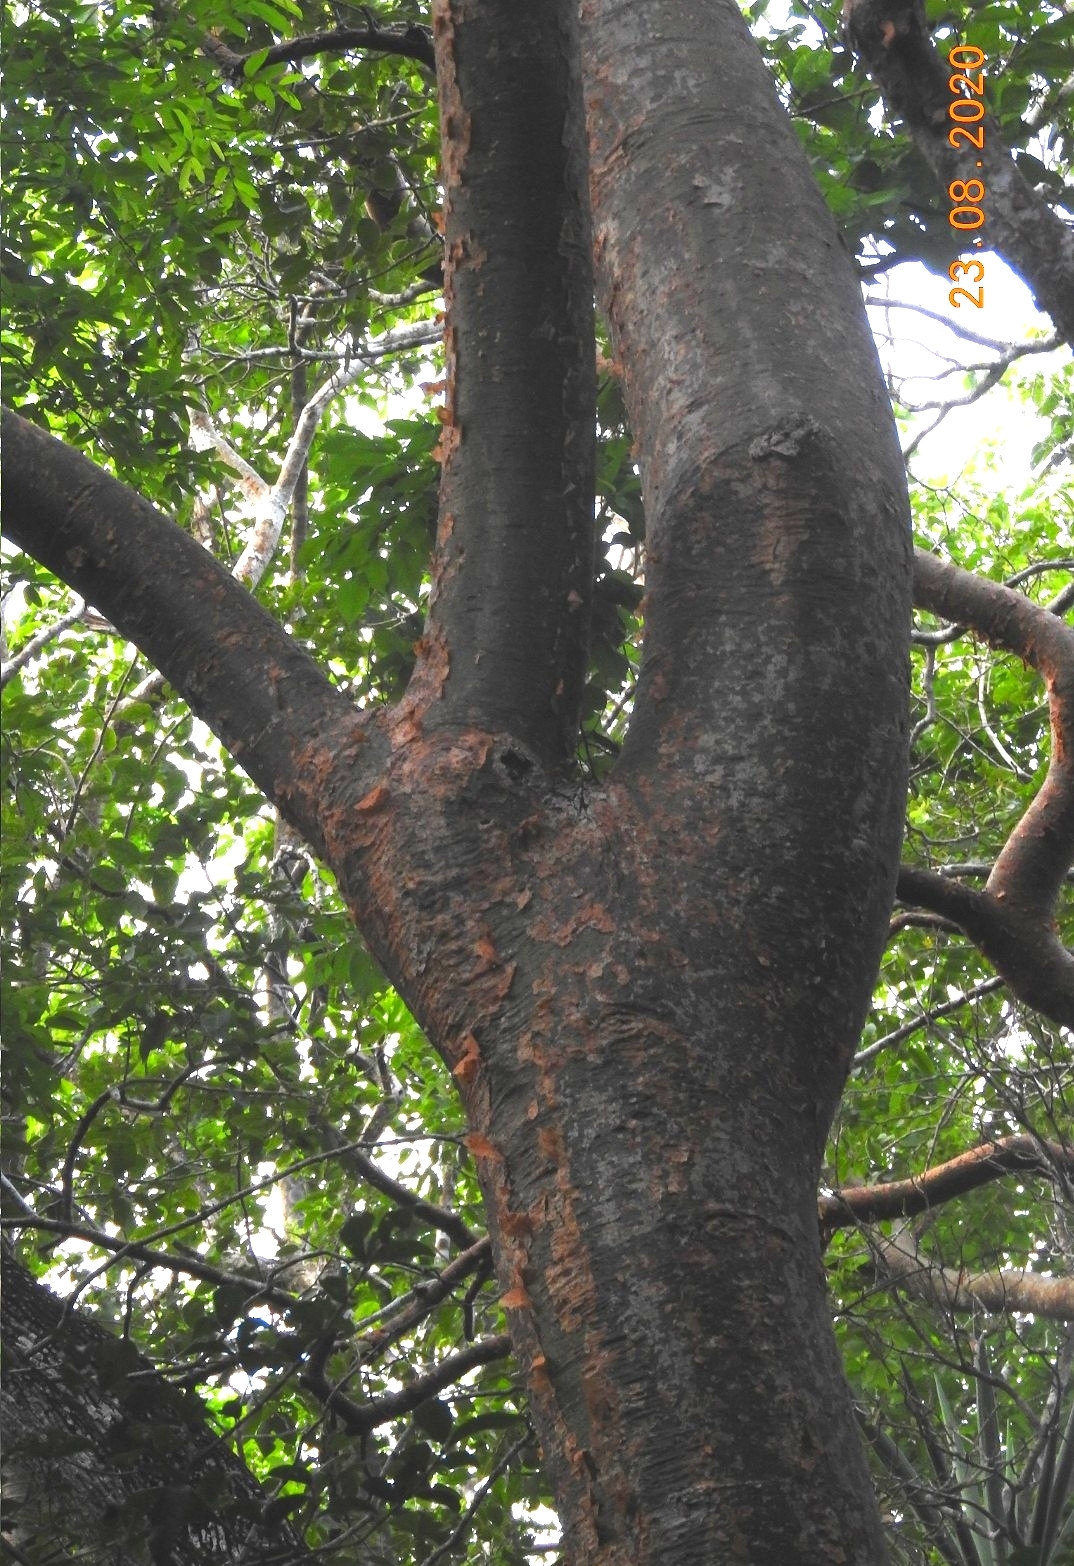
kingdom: Plantae
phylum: Tracheophyta
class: Magnoliopsida
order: Sapindales
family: Burseraceae
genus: Bursera
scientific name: Bursera simaruba
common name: Turpentine tree
